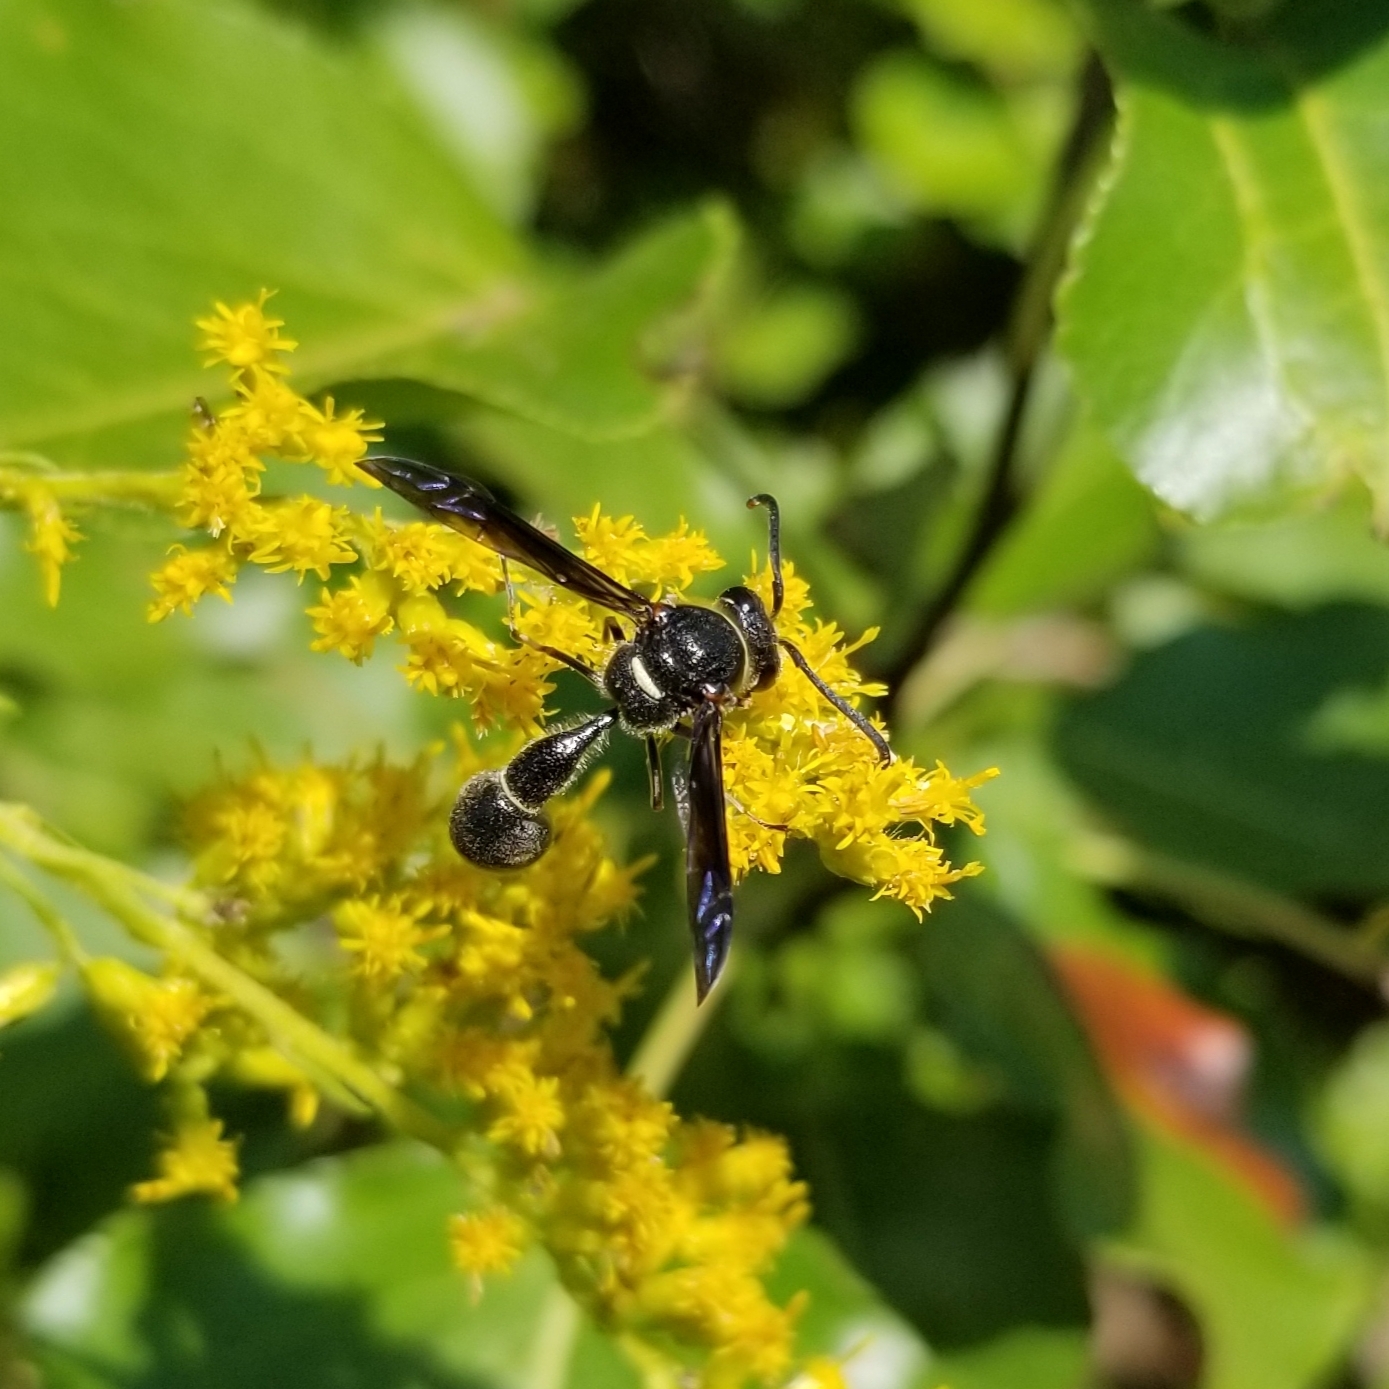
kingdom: Animalia
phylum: Arthropoda
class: Insecta
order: Hymenoptera
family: Vespidae
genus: Eumenes
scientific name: Eumenes fraternus
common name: Fraternal potter wasp
